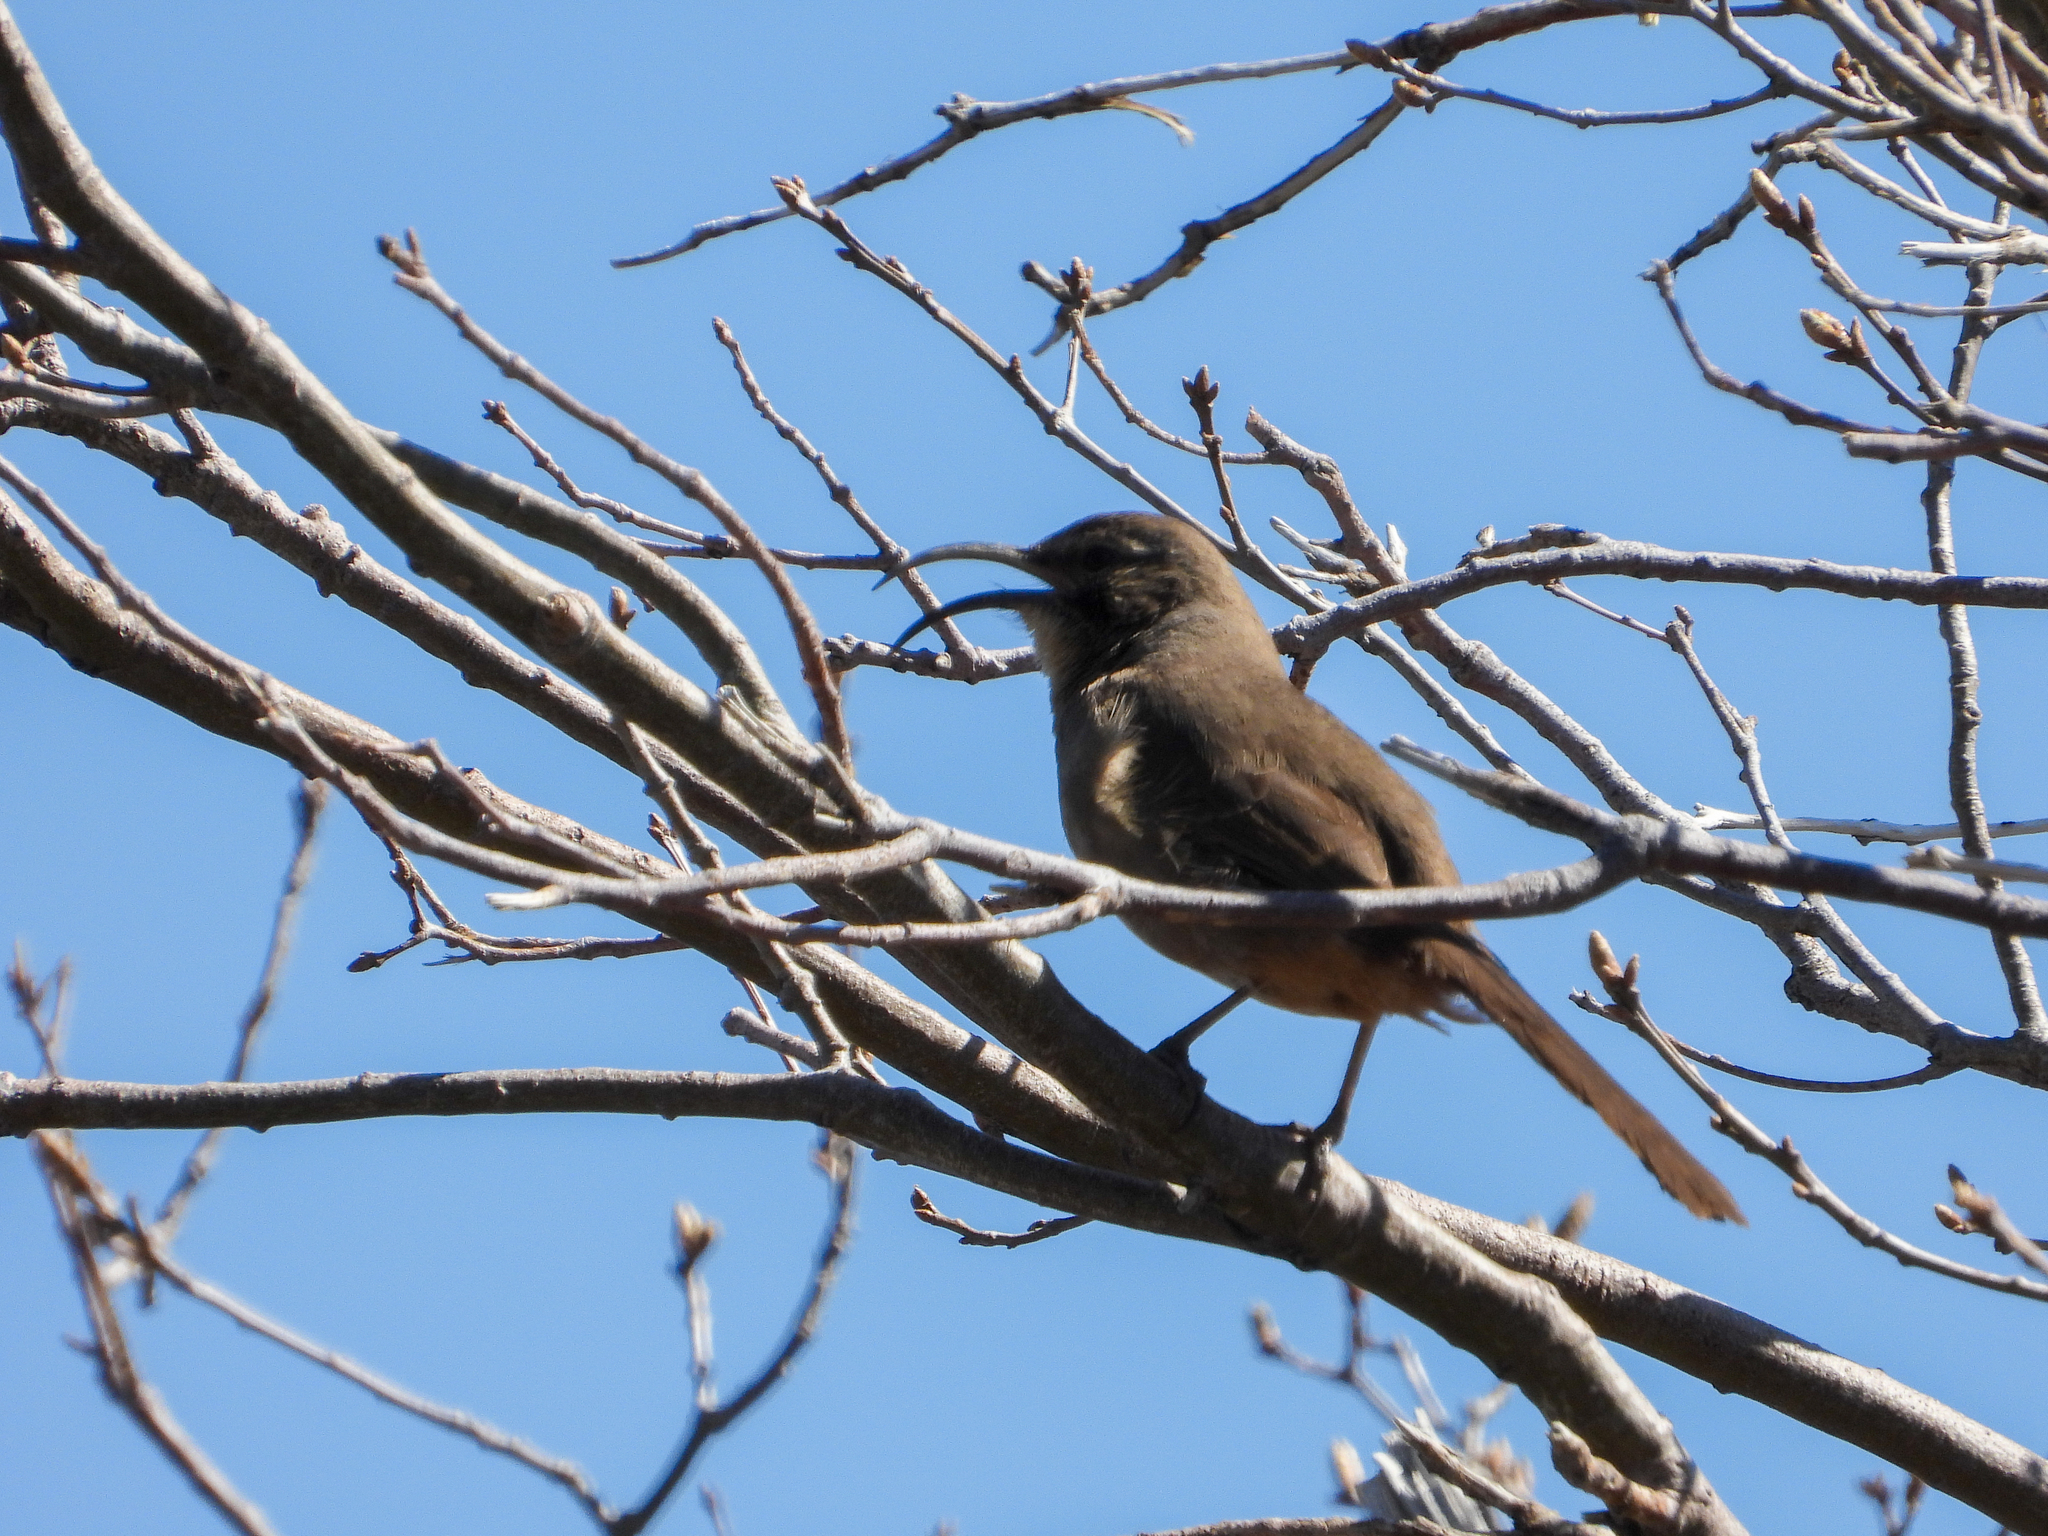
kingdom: Animalia
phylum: Chordata
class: Aves
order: Passeriformes
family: Mimidae
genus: Toxostoma
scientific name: Toxostoma redivivum
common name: California thrasher
